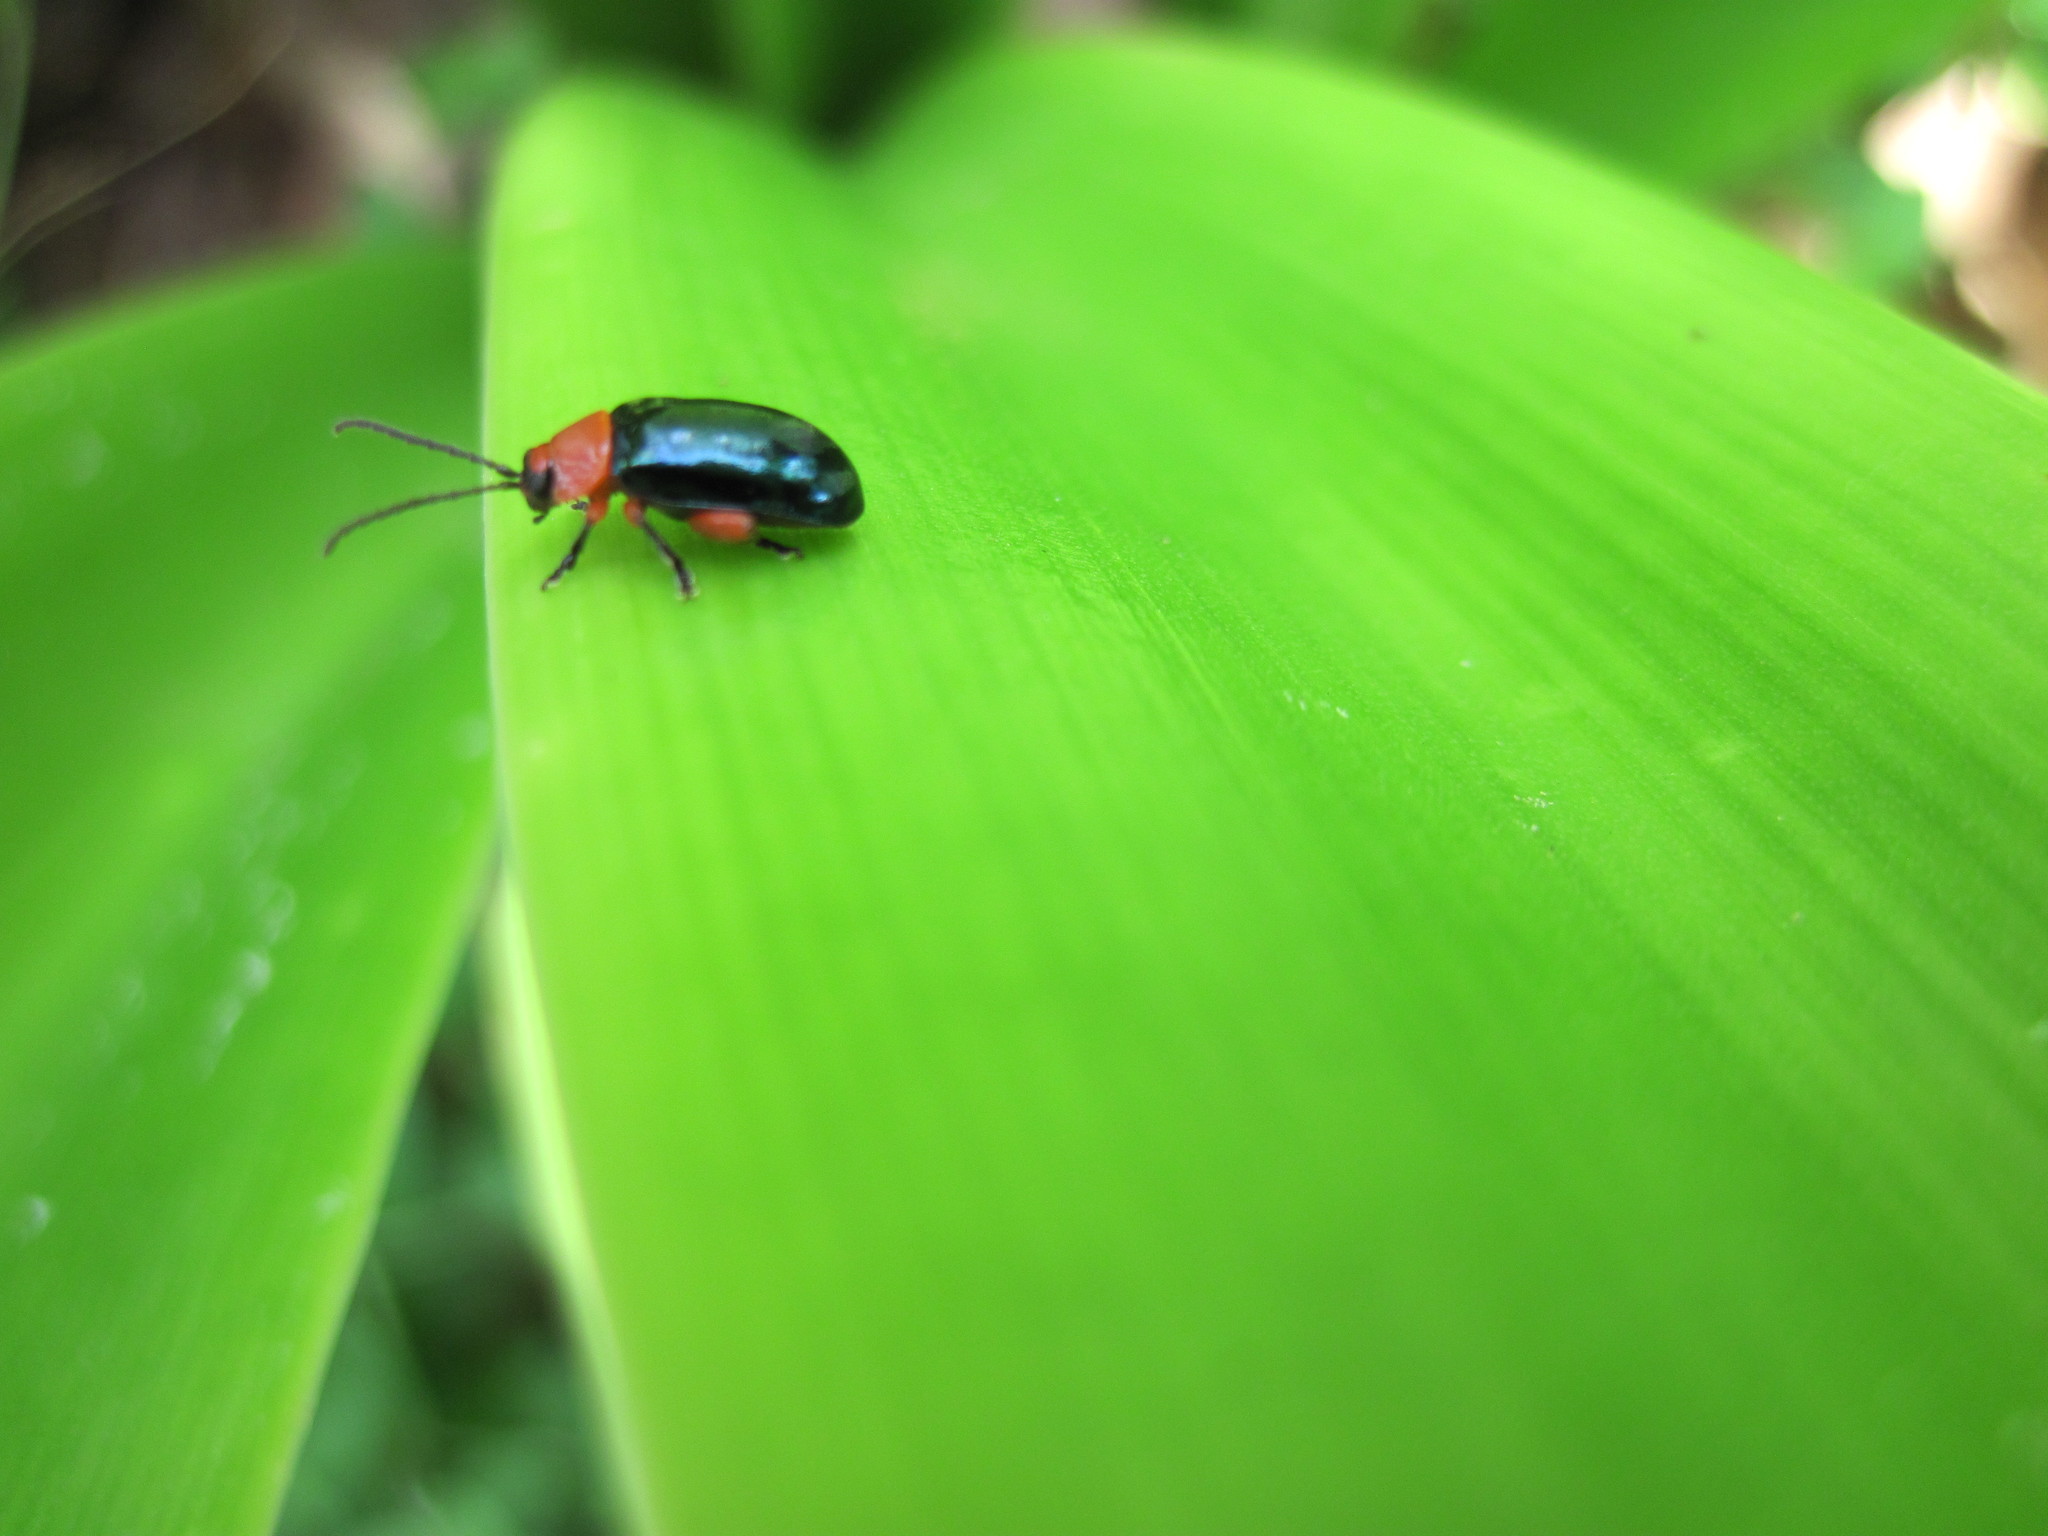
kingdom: Animalia
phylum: Arthropoda
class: Insecta
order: Coleoptera
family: Chrysomelidae
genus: Asphaera
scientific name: Asphaera lustrans
